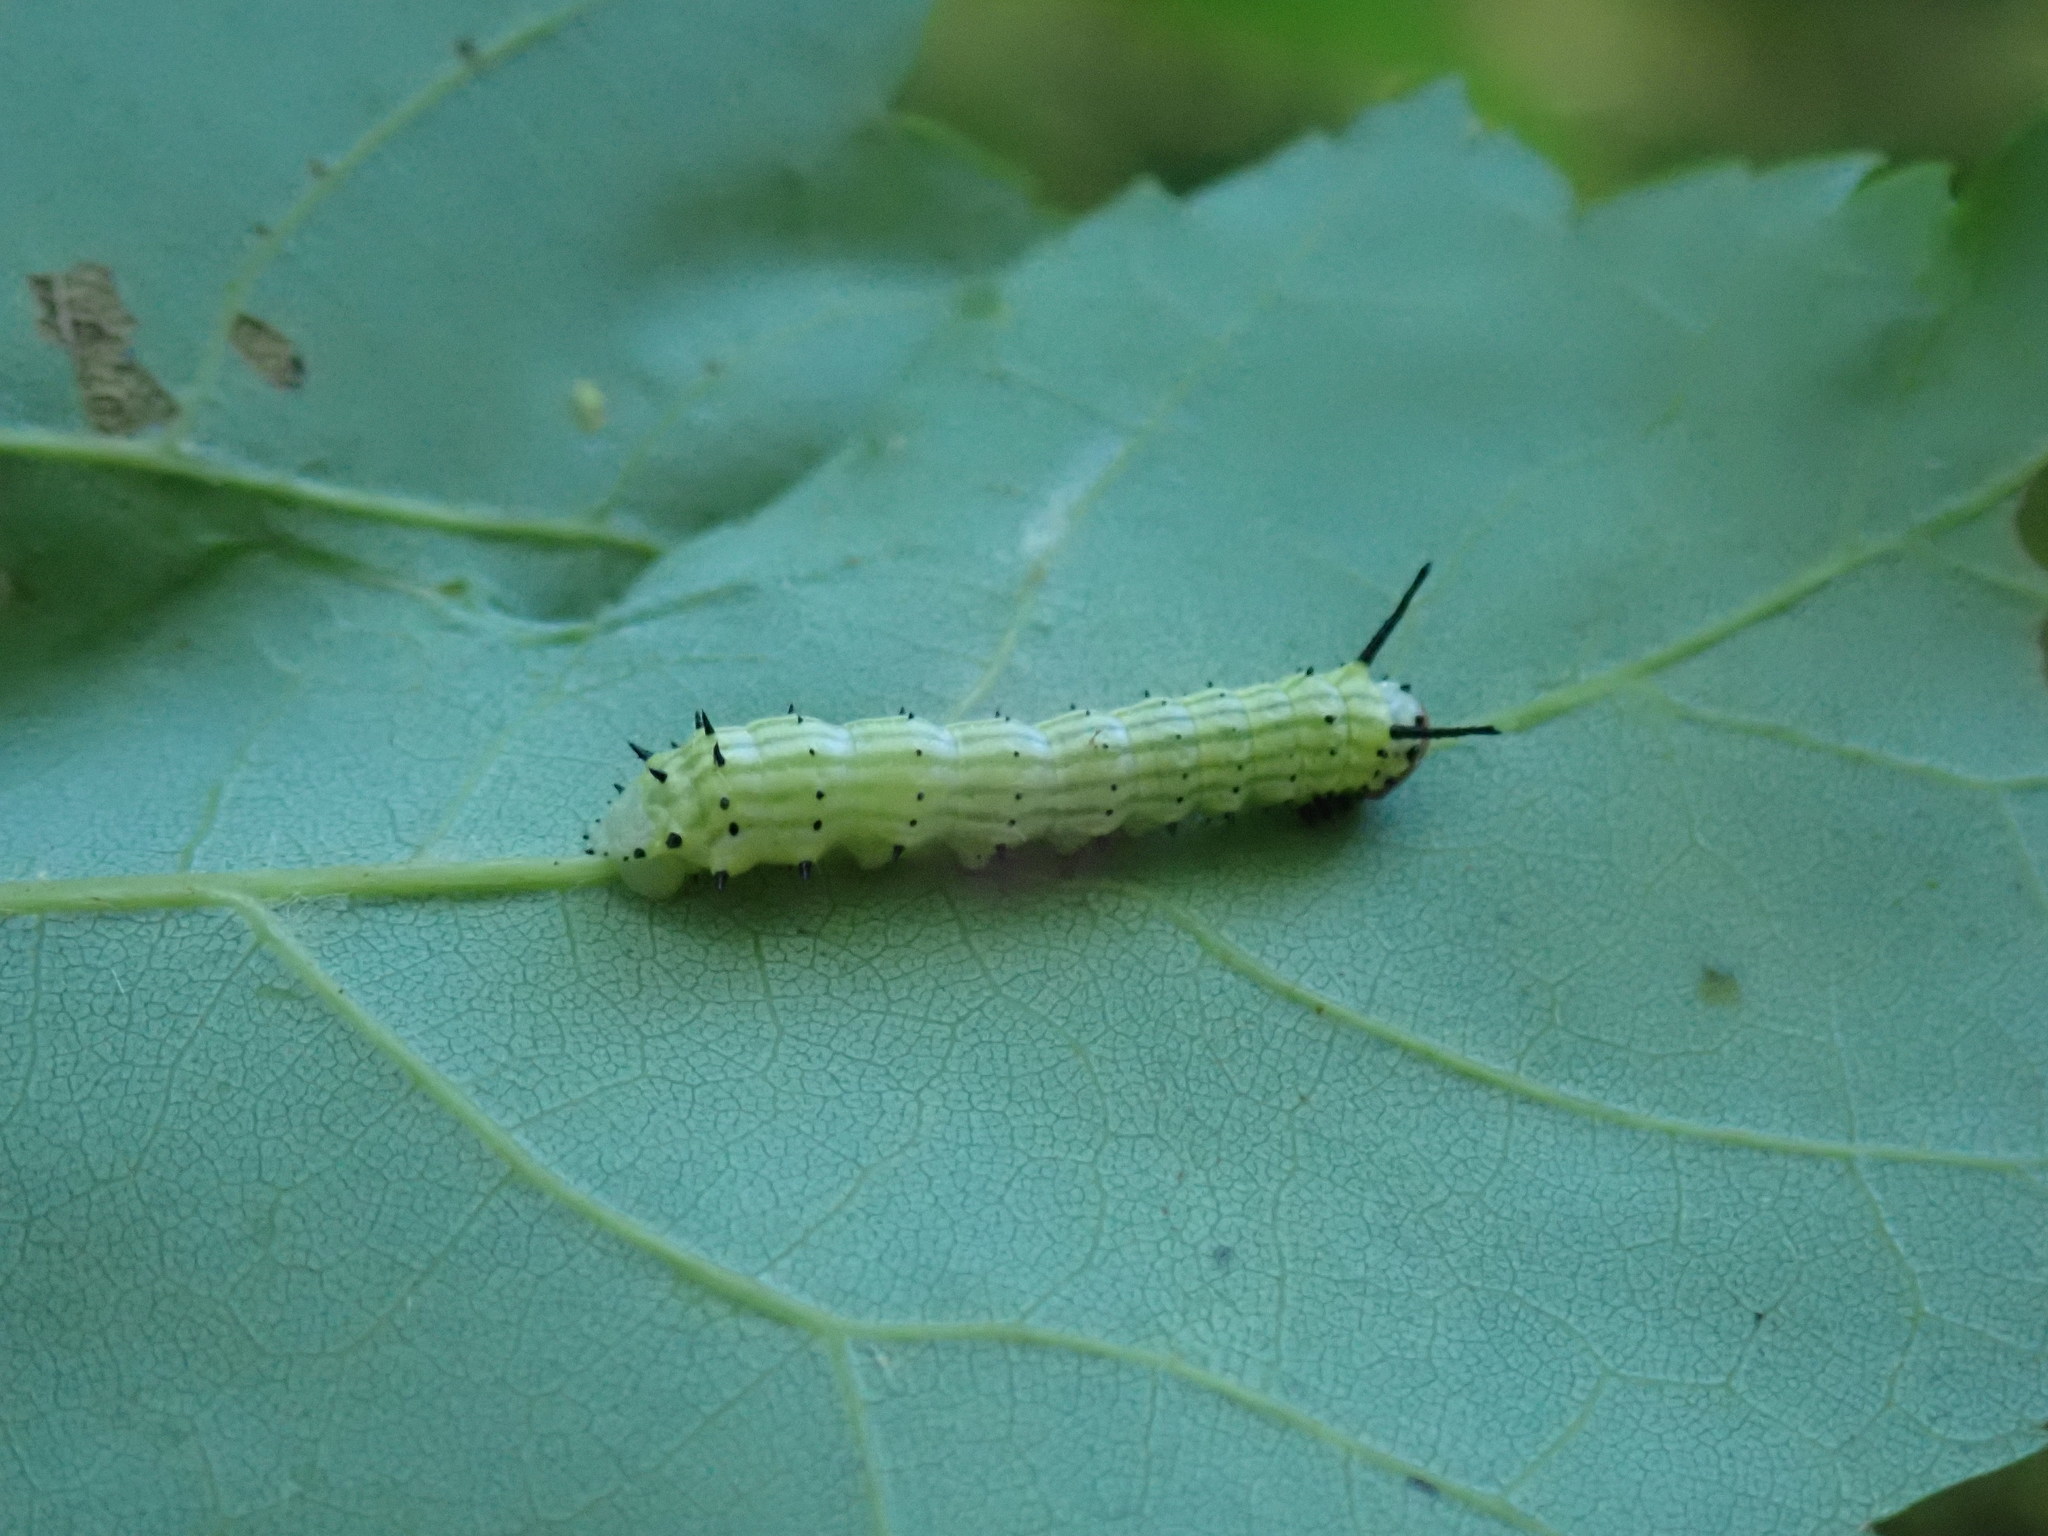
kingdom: Animalia
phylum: Arthropoda
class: Insecta
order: Lepidoptera
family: Saturniidae
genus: Dryocampa
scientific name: Dryocampa rubicunda
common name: Rosy maple moth
